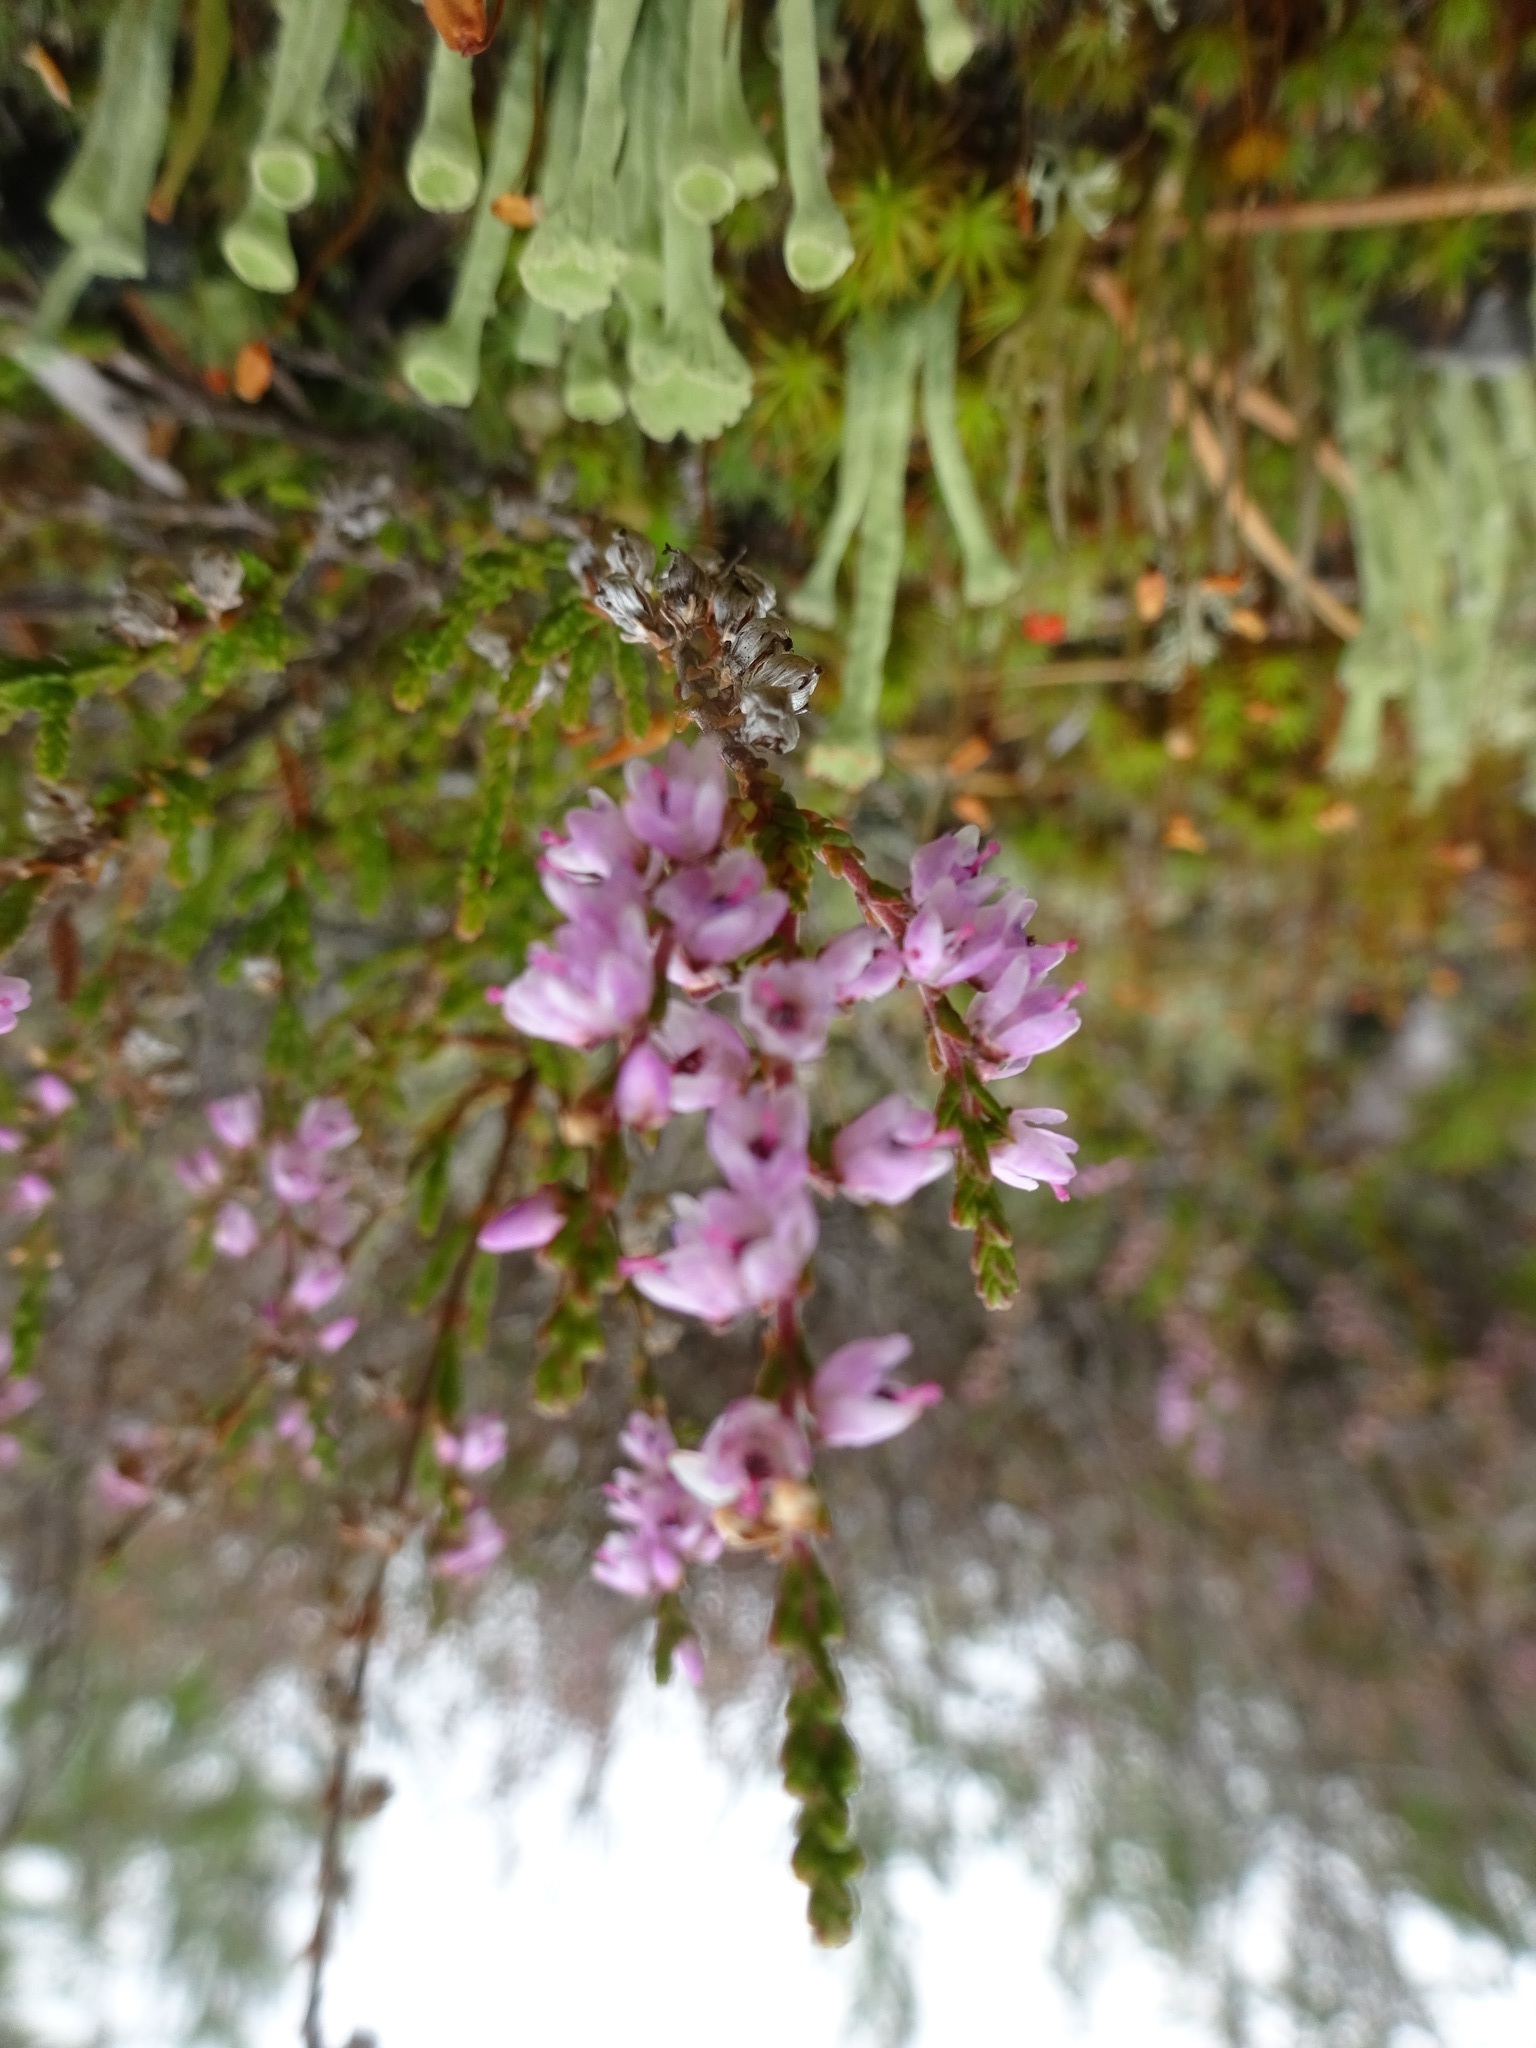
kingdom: Plantae
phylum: Tracheophyta
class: Magnoliopsida
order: Ericales
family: Ericaceae
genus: Calluna
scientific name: Calluna vulgaris
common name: Heather
